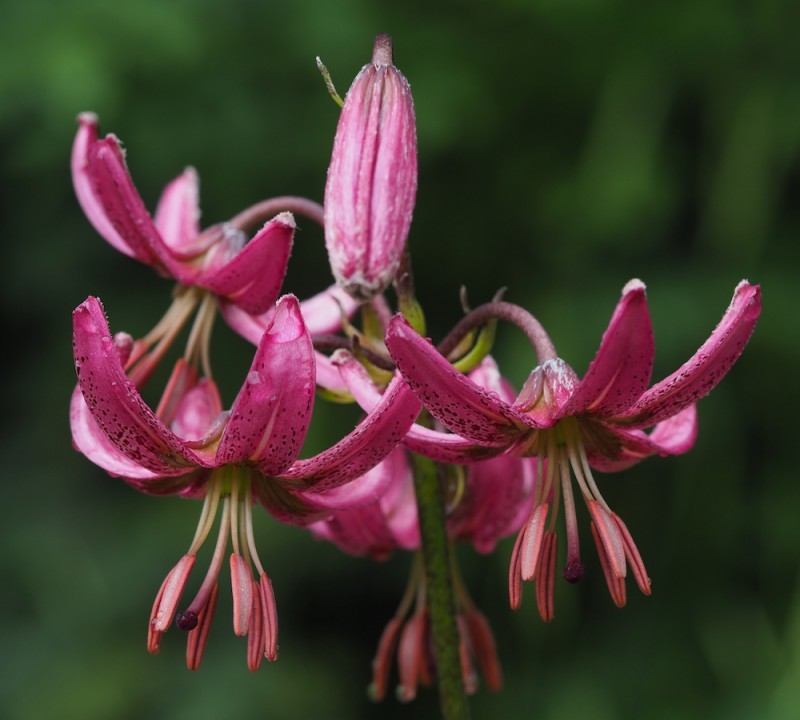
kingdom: Plantae
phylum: Tracheophyta
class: Liliopsida
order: Liliales
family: Liliaceae
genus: Lilium
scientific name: Lilium martagon
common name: Martagon lily
